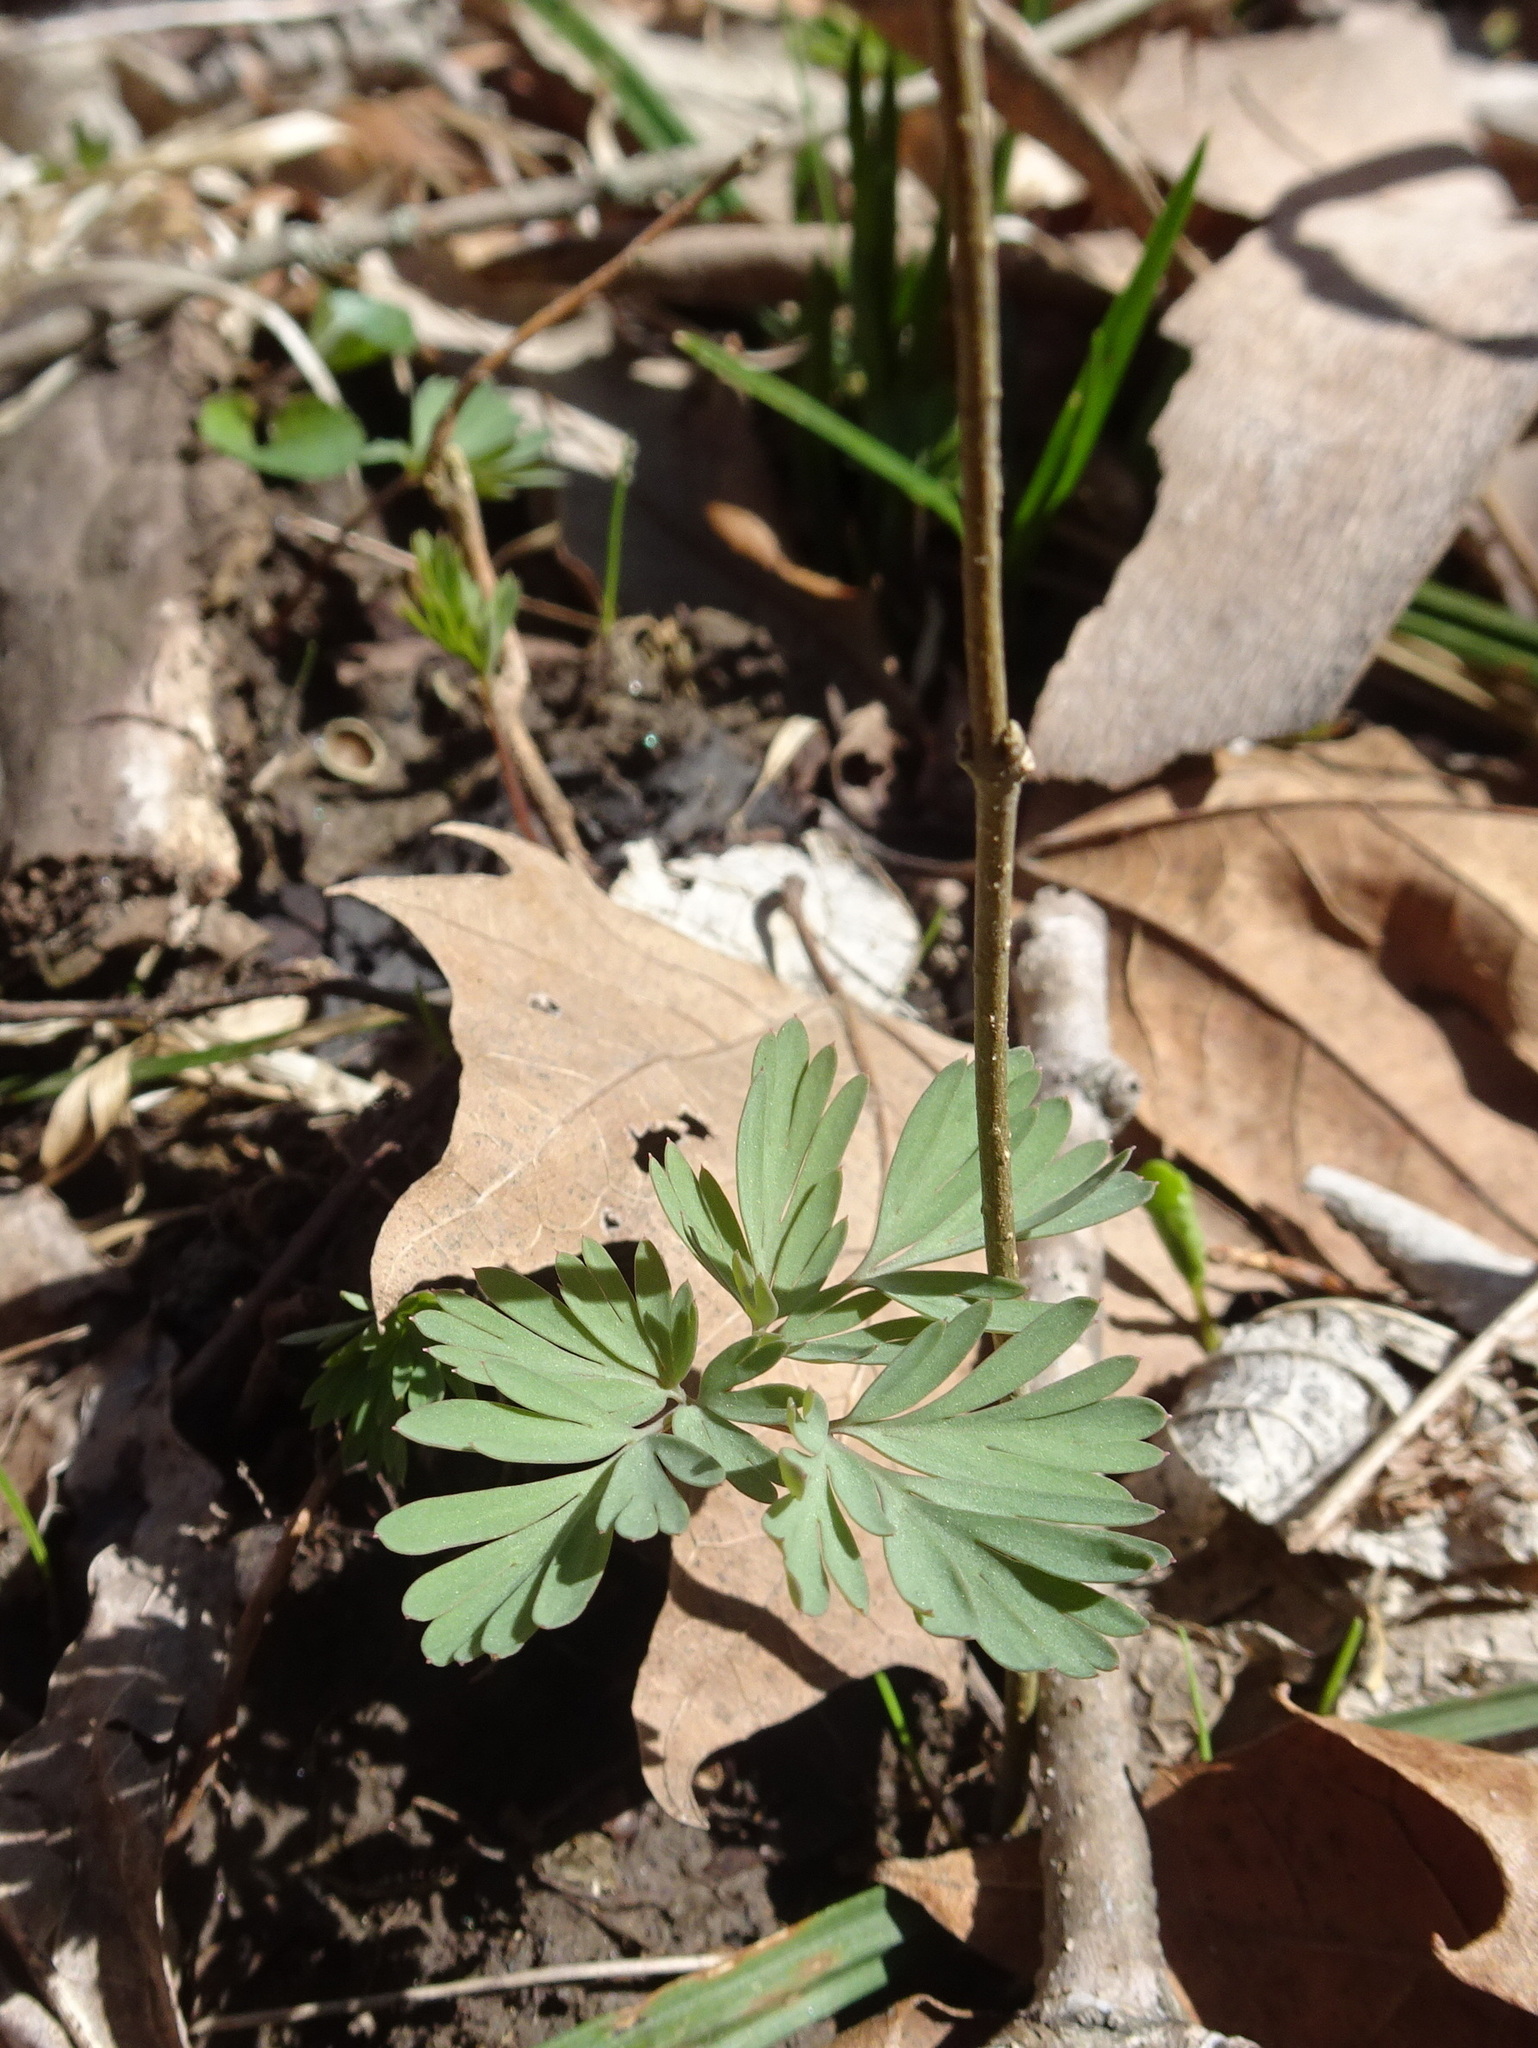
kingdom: Plantae
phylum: Tracheophyta
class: Magnoliopsida
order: Ranunculales
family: Papaveraceae
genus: Dicentra
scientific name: Dicentra cucullaria
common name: Dutchman's breeches
